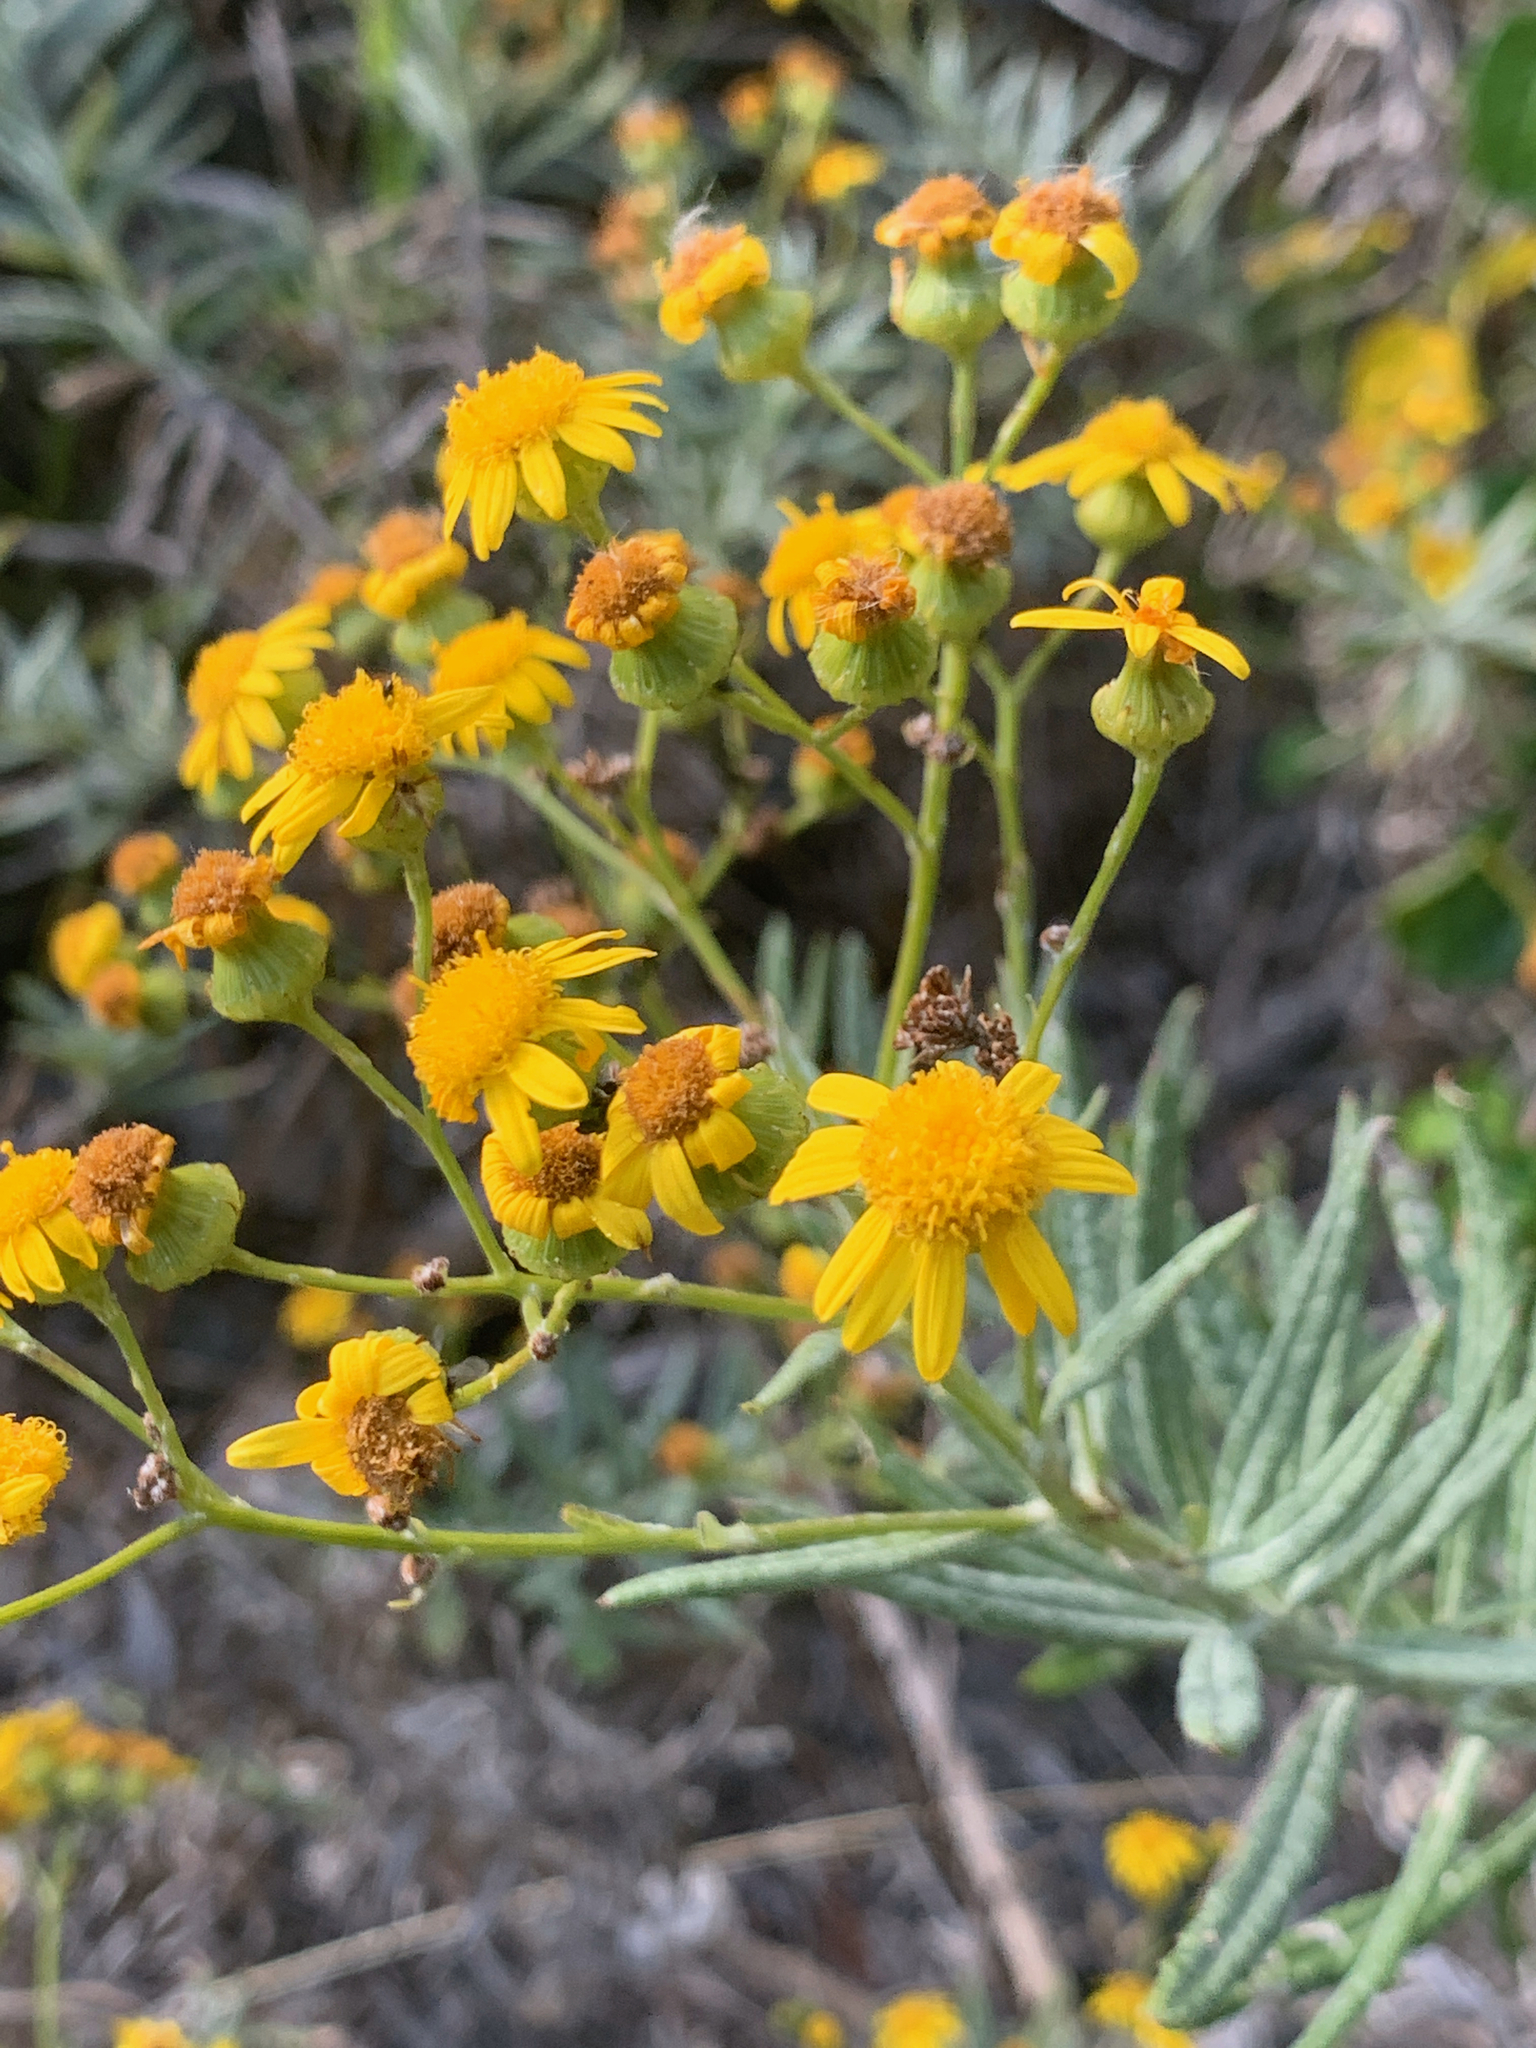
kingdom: Plantae
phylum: Tracheophyta
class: Magnoliopsida
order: Asterales
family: Asteraceae
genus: Senecio
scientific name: Senecio pterophorus
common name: Shoddy ragwort
